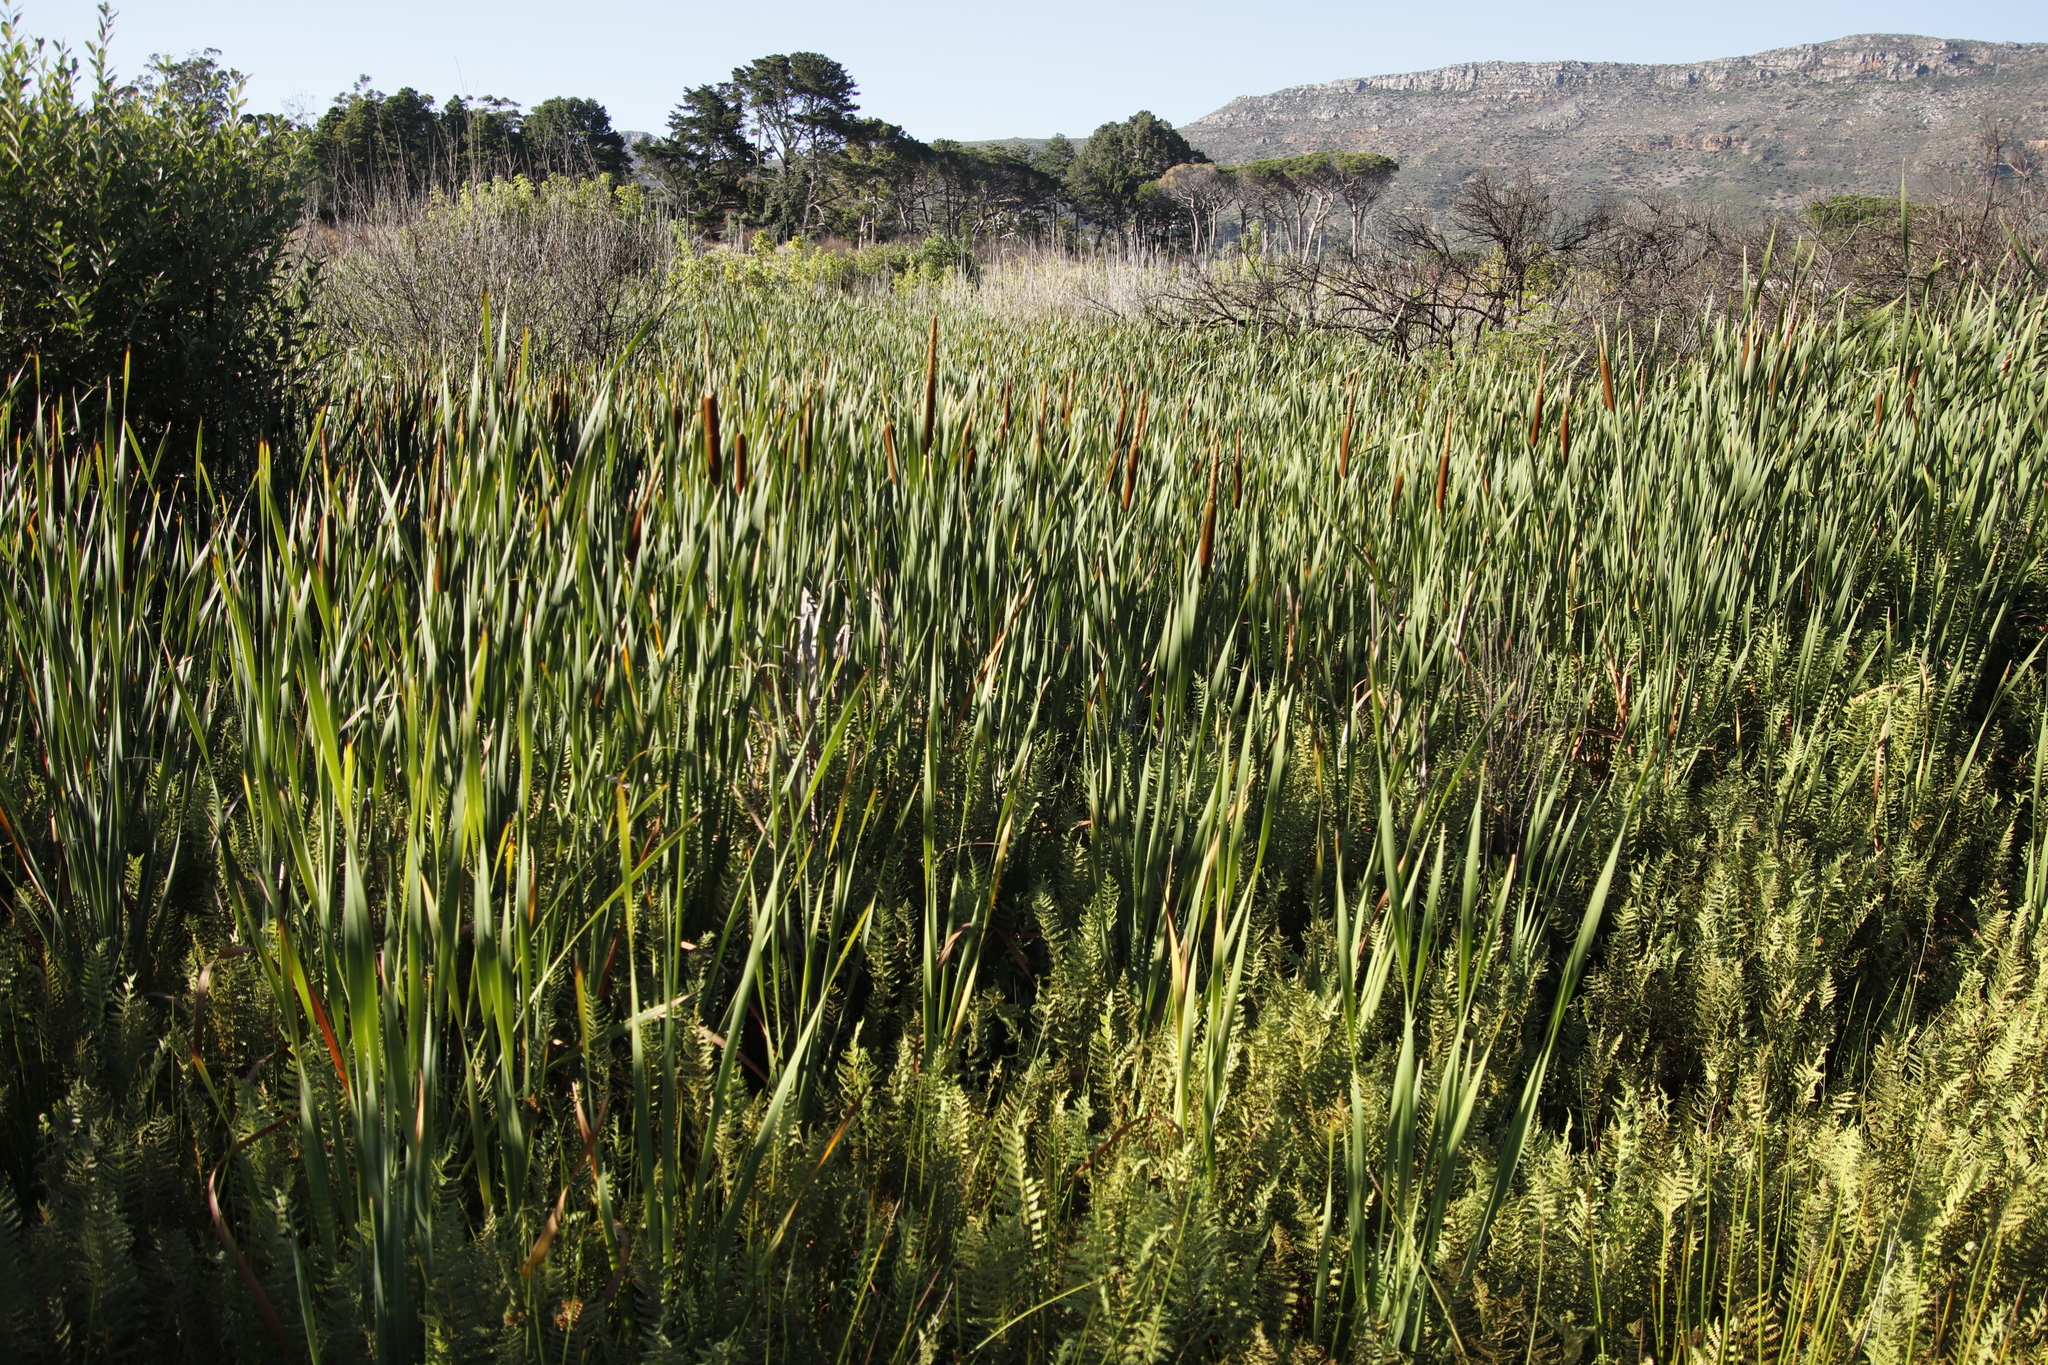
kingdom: Plantae
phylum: Tracheophyta
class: Liliopsida
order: Poales
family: Typhaceae
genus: Typha
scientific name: Typha capensis
